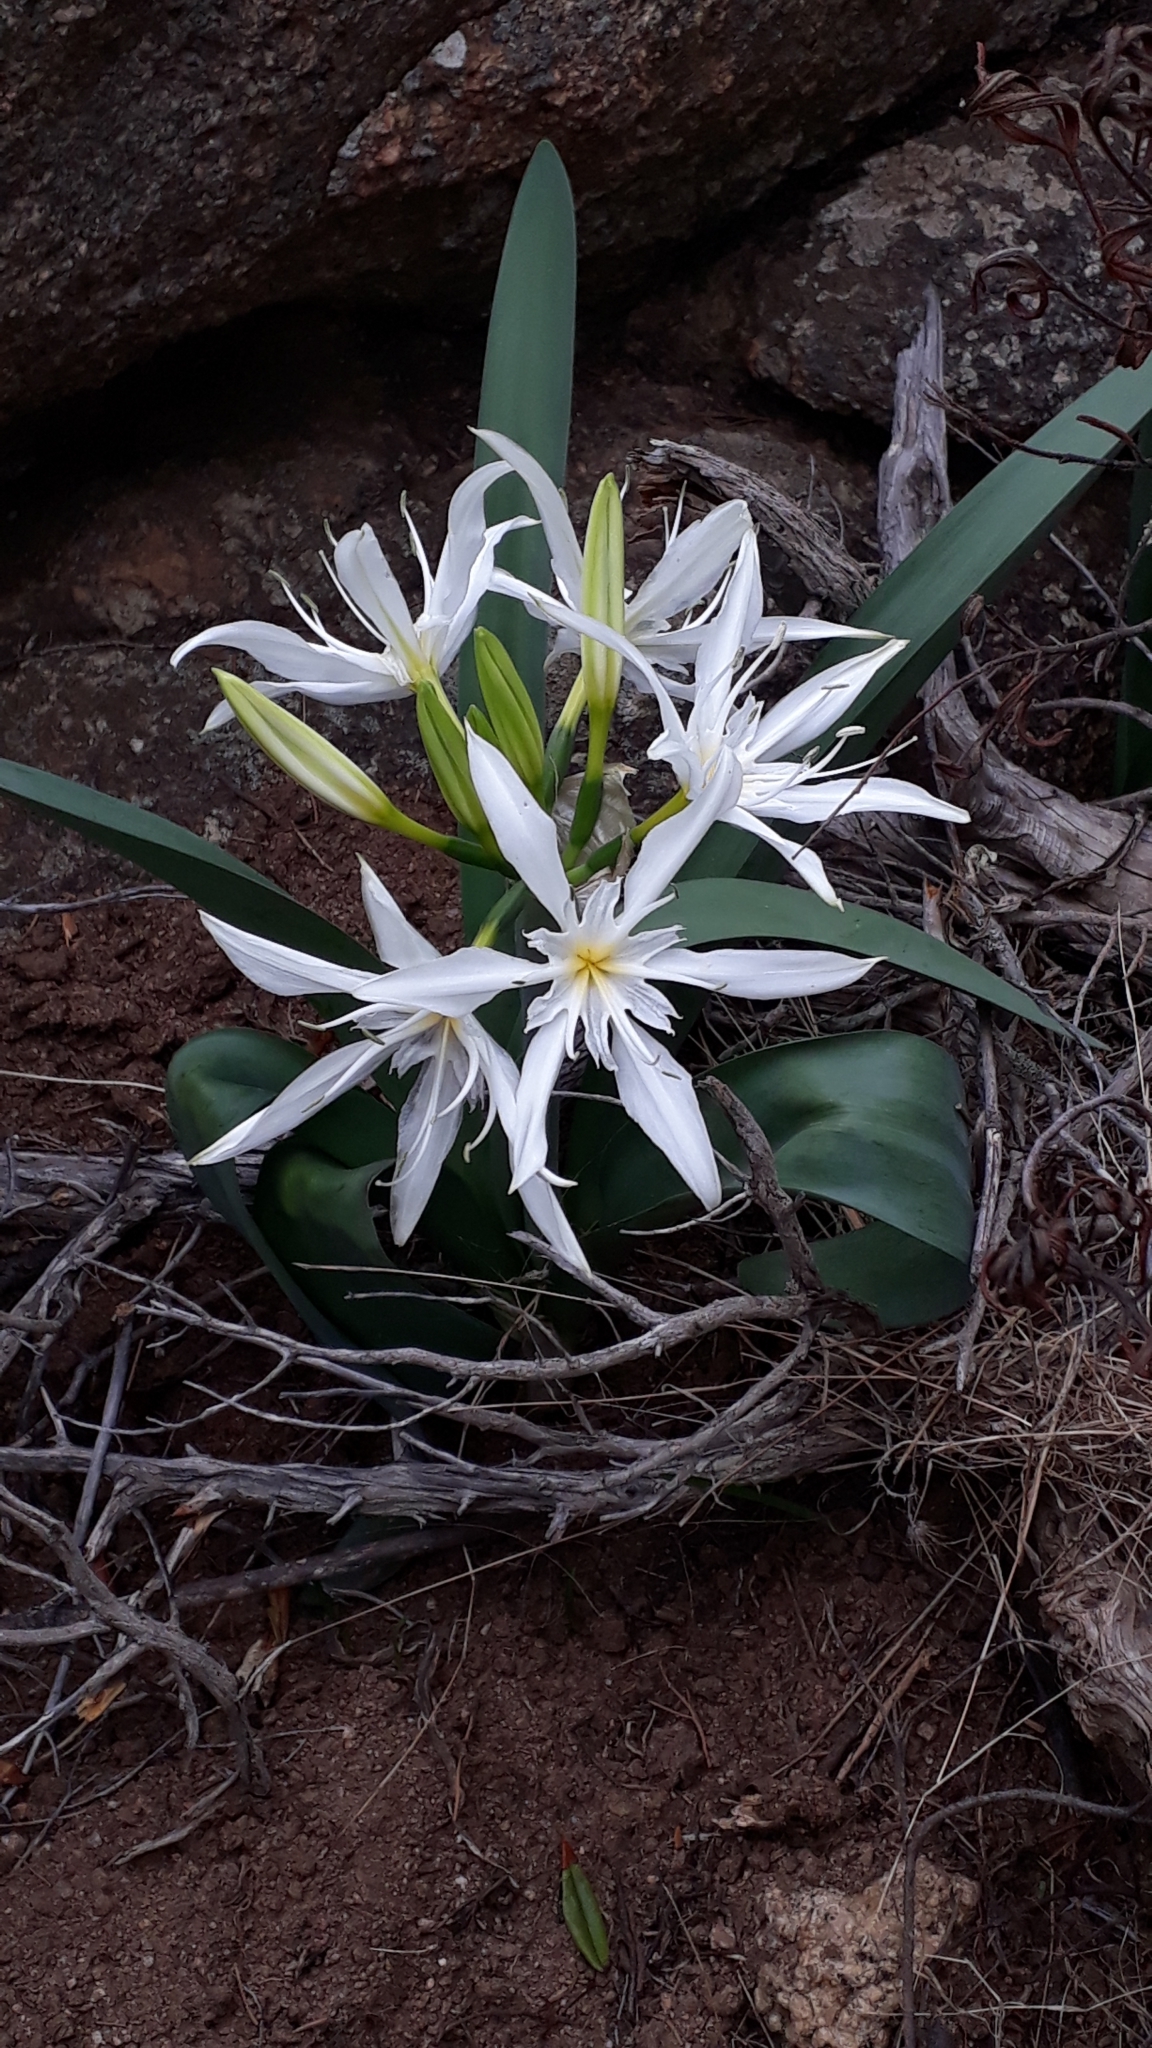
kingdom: Plantae
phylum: Tracheophyta
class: Liliopsida
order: Asparagales
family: Amaryllidaceae
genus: Pancratium
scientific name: Pancratium illyricum
